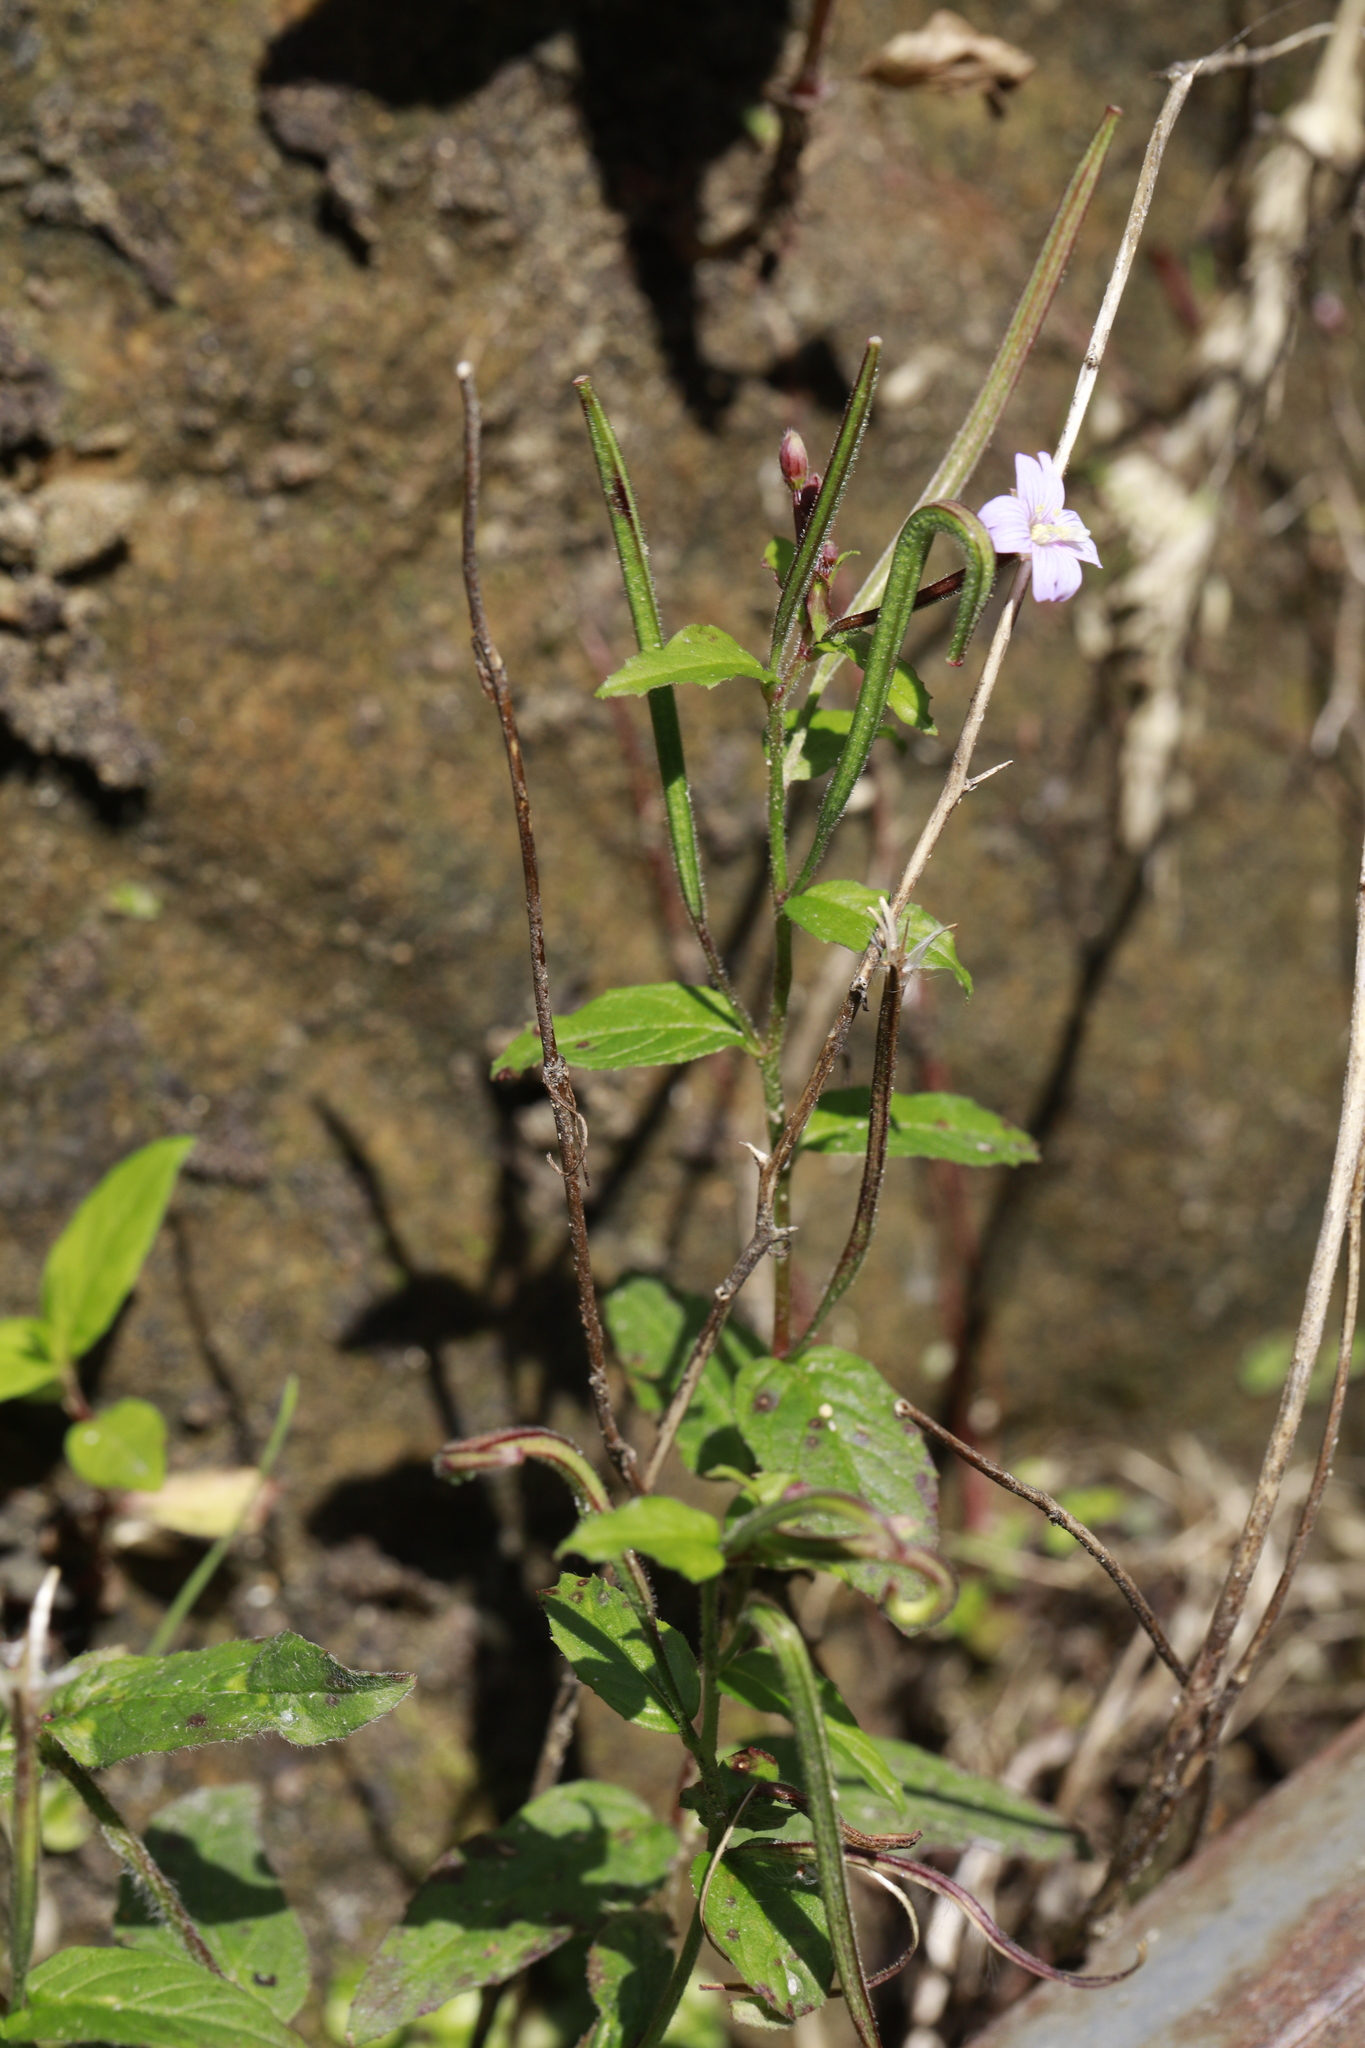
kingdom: Plantae
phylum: Tracheophyta
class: Magnoliopsida
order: Myrtales
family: Onagraceae
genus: Epilobium
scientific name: Epilobium ciliatum
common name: American willowherb
